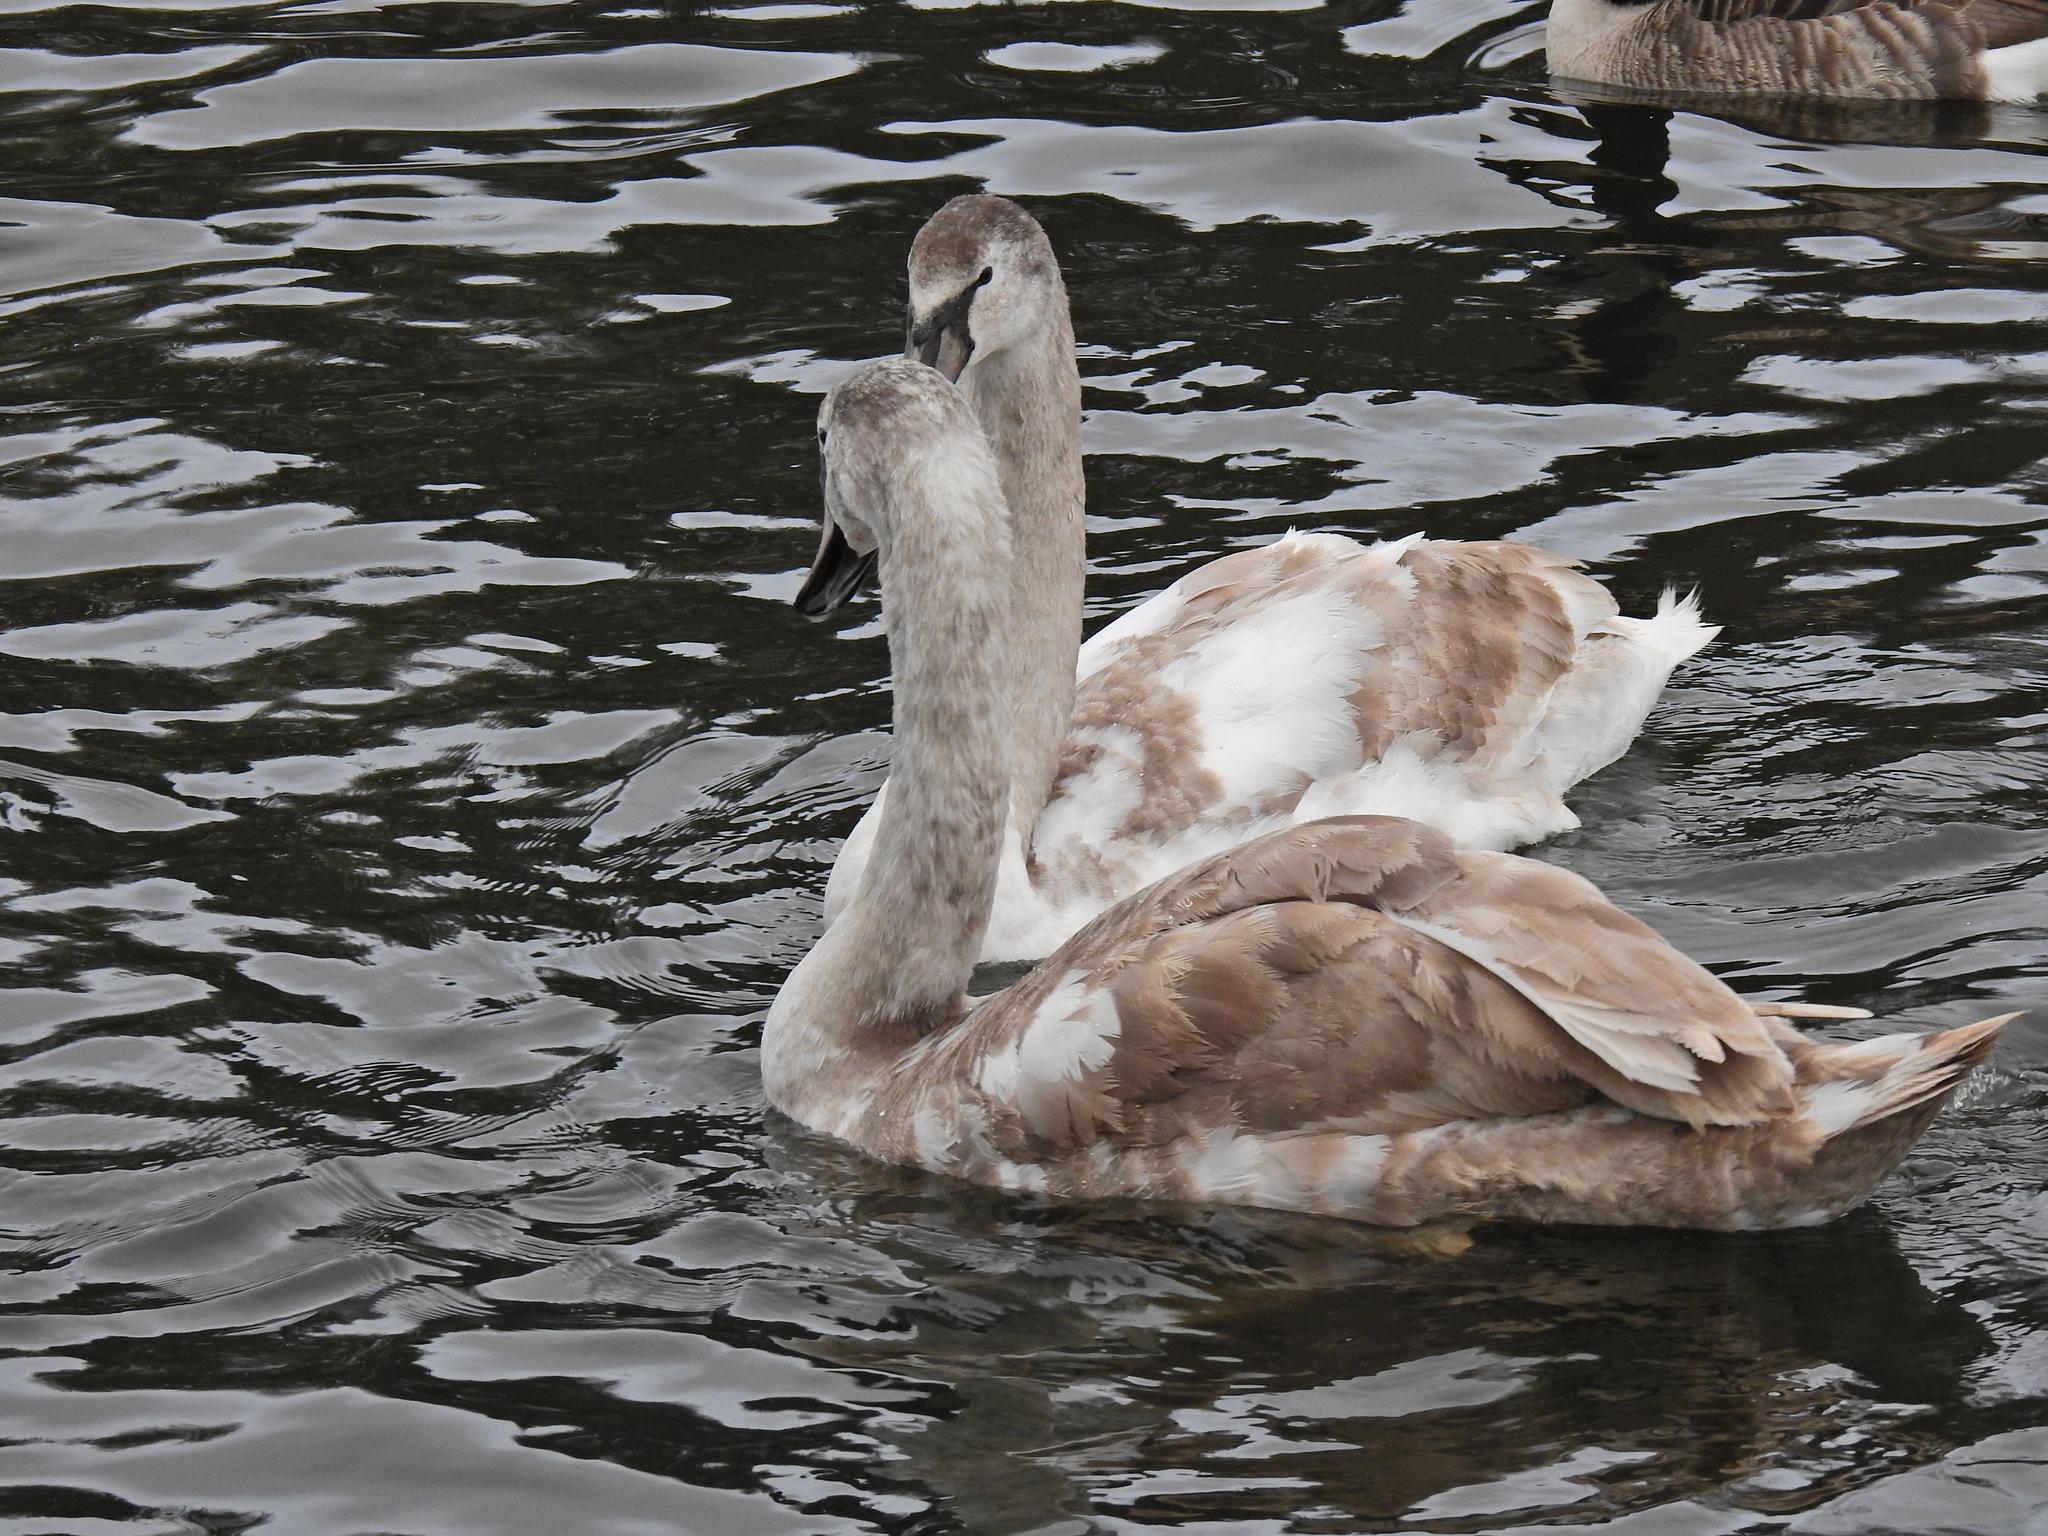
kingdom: Animalia
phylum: Chordata
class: Aves
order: Anseriformes
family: Anatidae
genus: Cygnus
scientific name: Cygnus olor
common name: Mute swan
